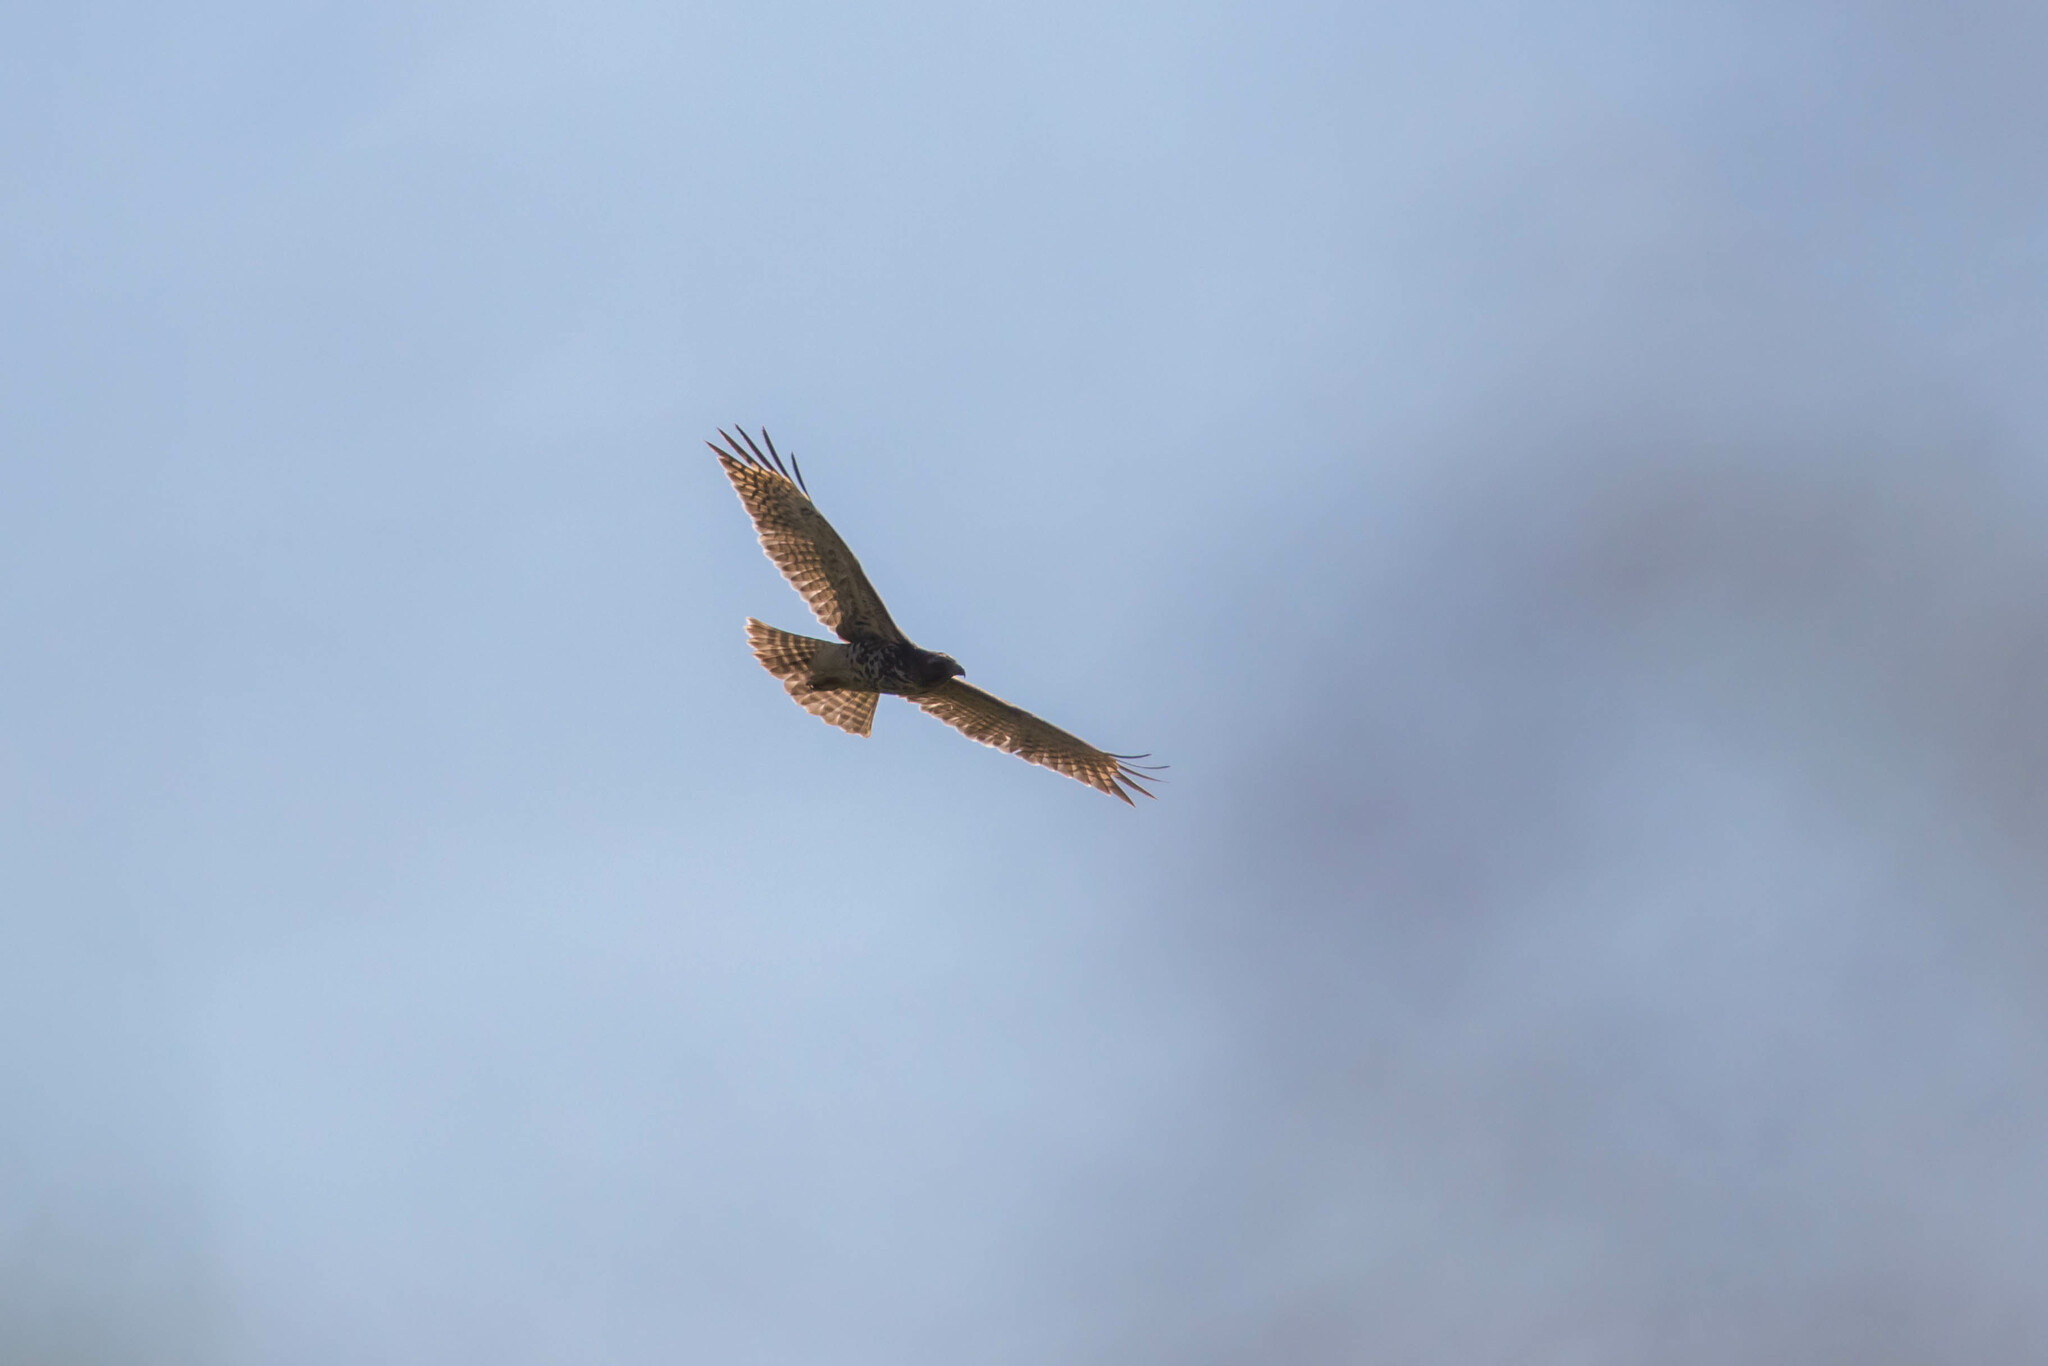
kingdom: Animalia
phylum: Chordata
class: Aves
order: Accipitriformes
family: Accipitridae
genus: Buteo
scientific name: Buteo lineatus
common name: Red-shouldered hawk
